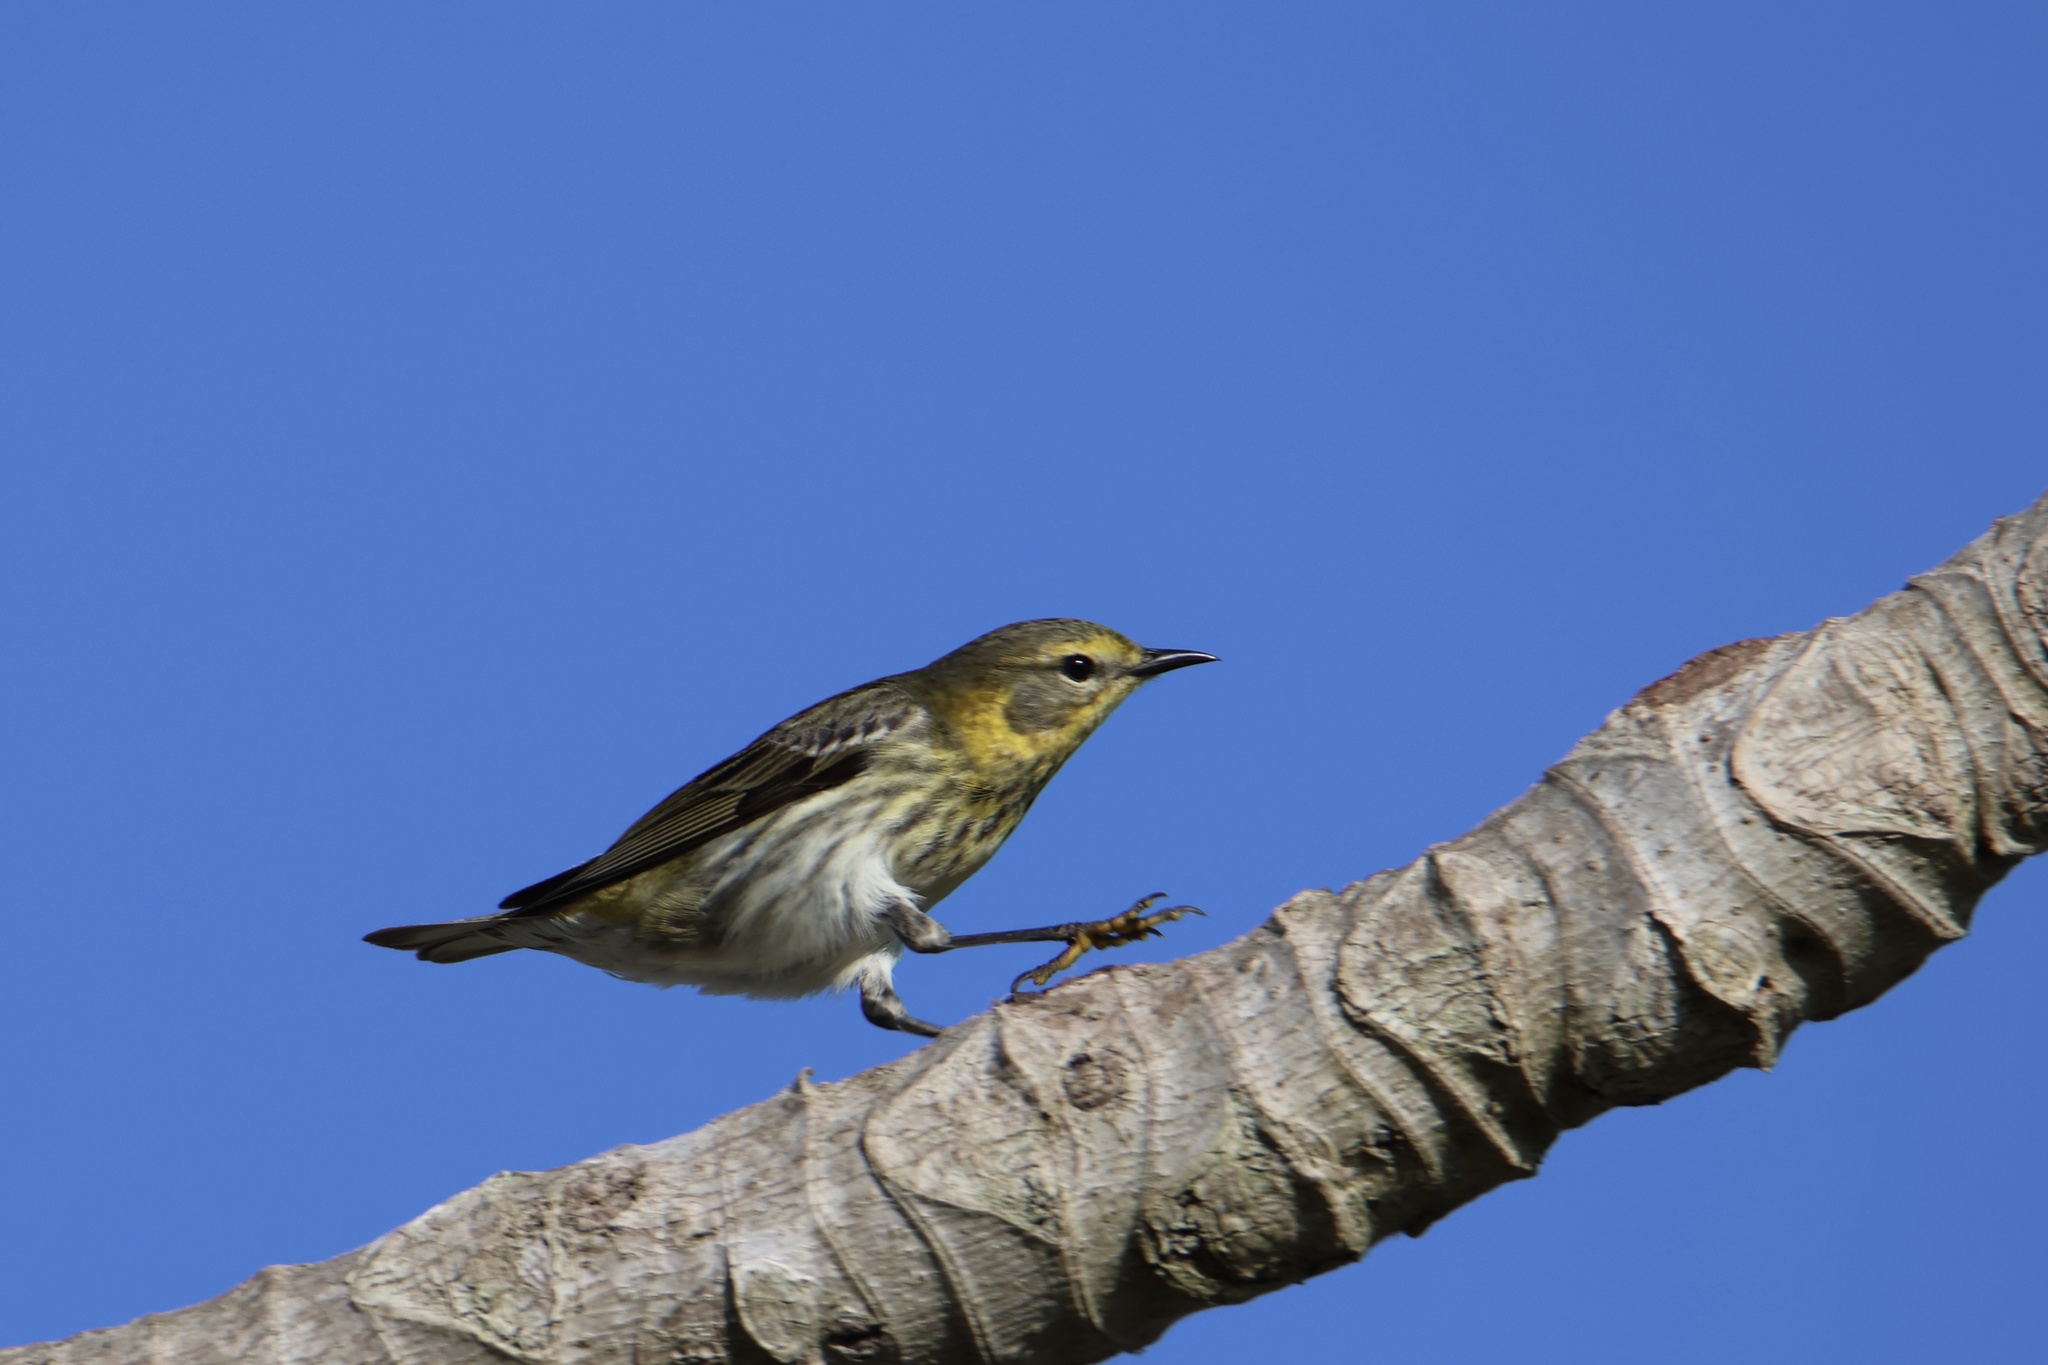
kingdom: Animalia
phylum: Chordata
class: Aves
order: Passeriformes
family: Parulidae
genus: Setophaga
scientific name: Setophaga tigrina
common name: Cape may warbler
